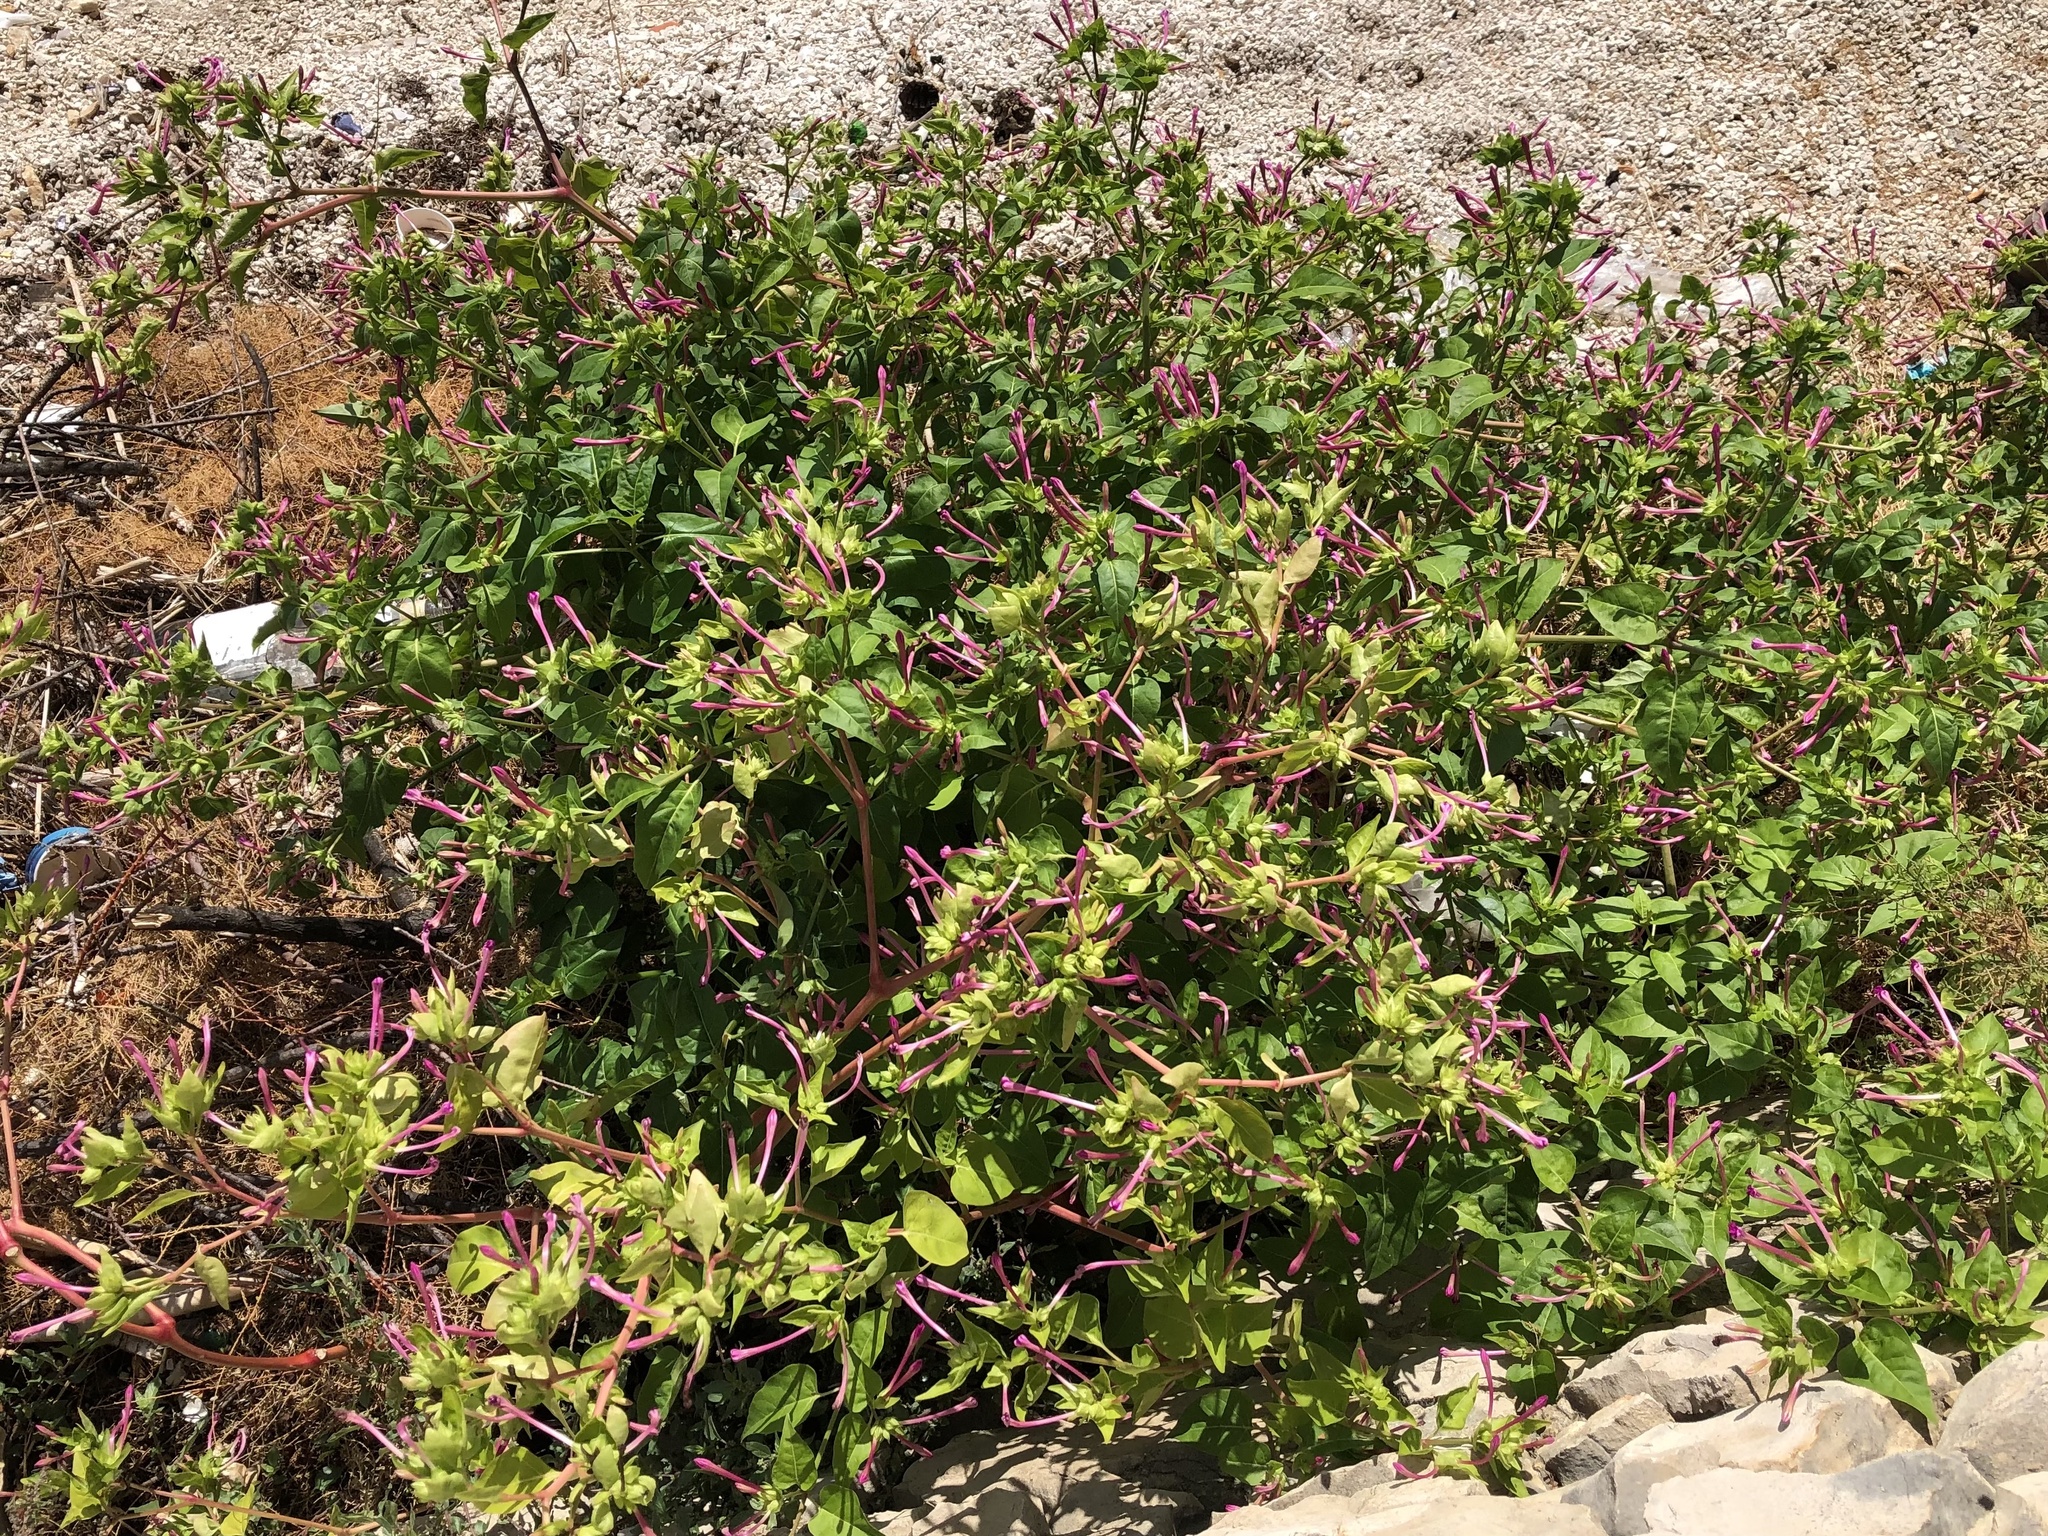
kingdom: Plantae
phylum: Tracheophyta
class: Magnoliopsida
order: Caryophyllales
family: Nyctaginaceae
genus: Mirabilis
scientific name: Mirabilis jalapa
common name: Marvel-of-peru
